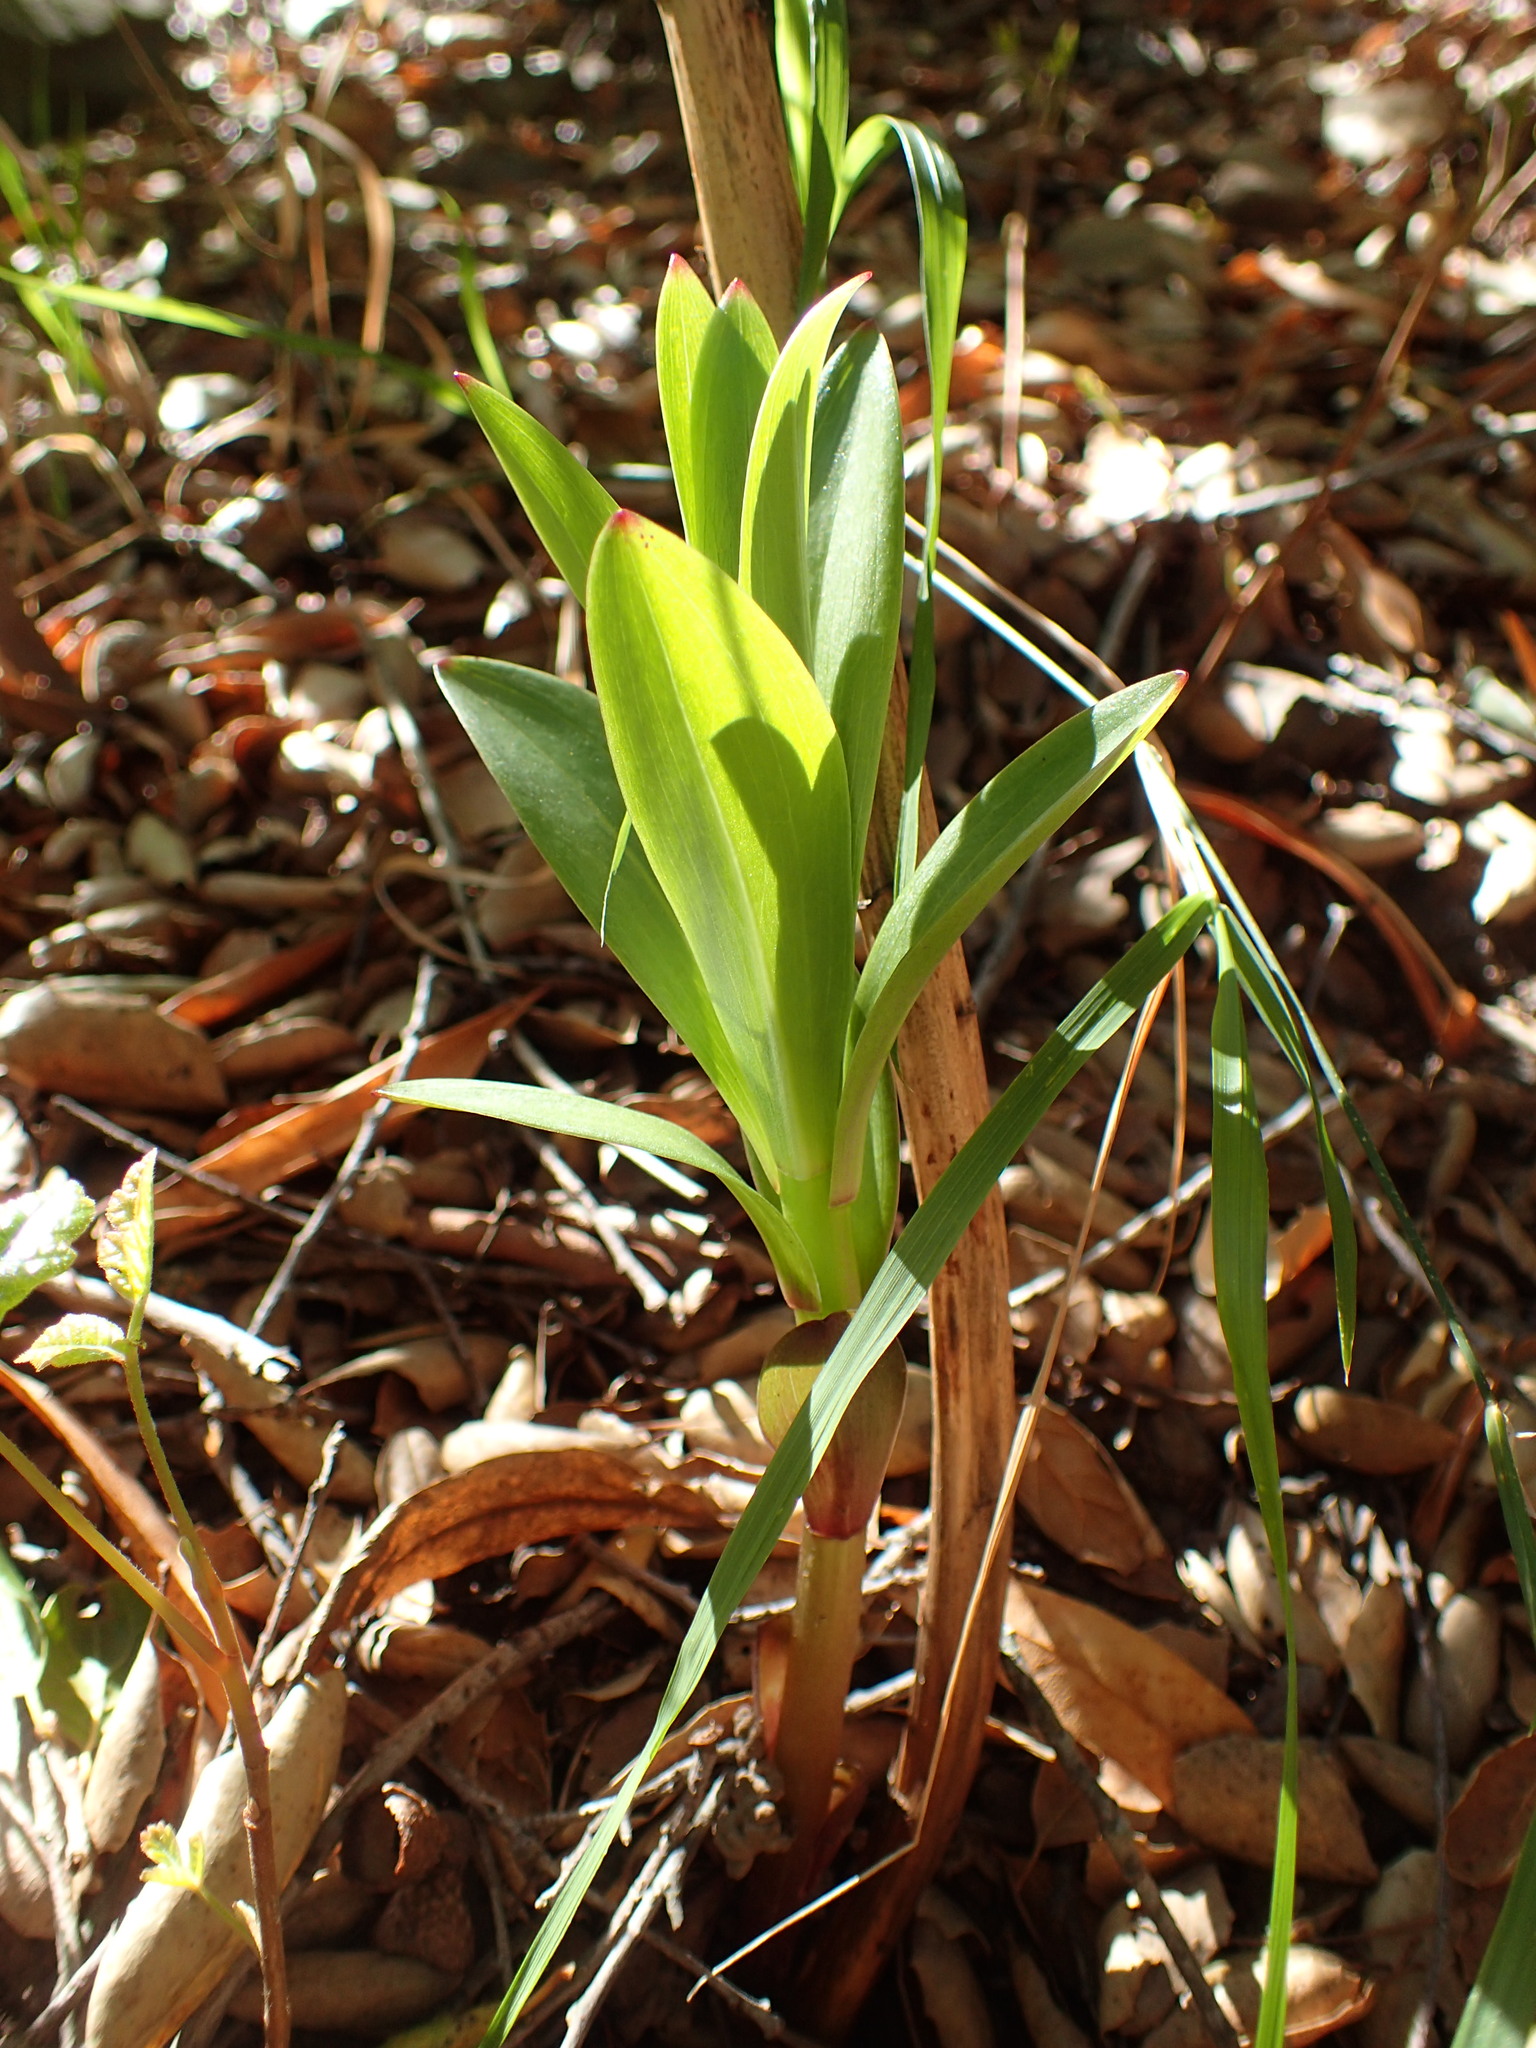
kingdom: Plantae
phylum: Tracheophyta
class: Liliopsida
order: Liliales
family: Liliaceae
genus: Lilium
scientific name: Lilium humboldtii
